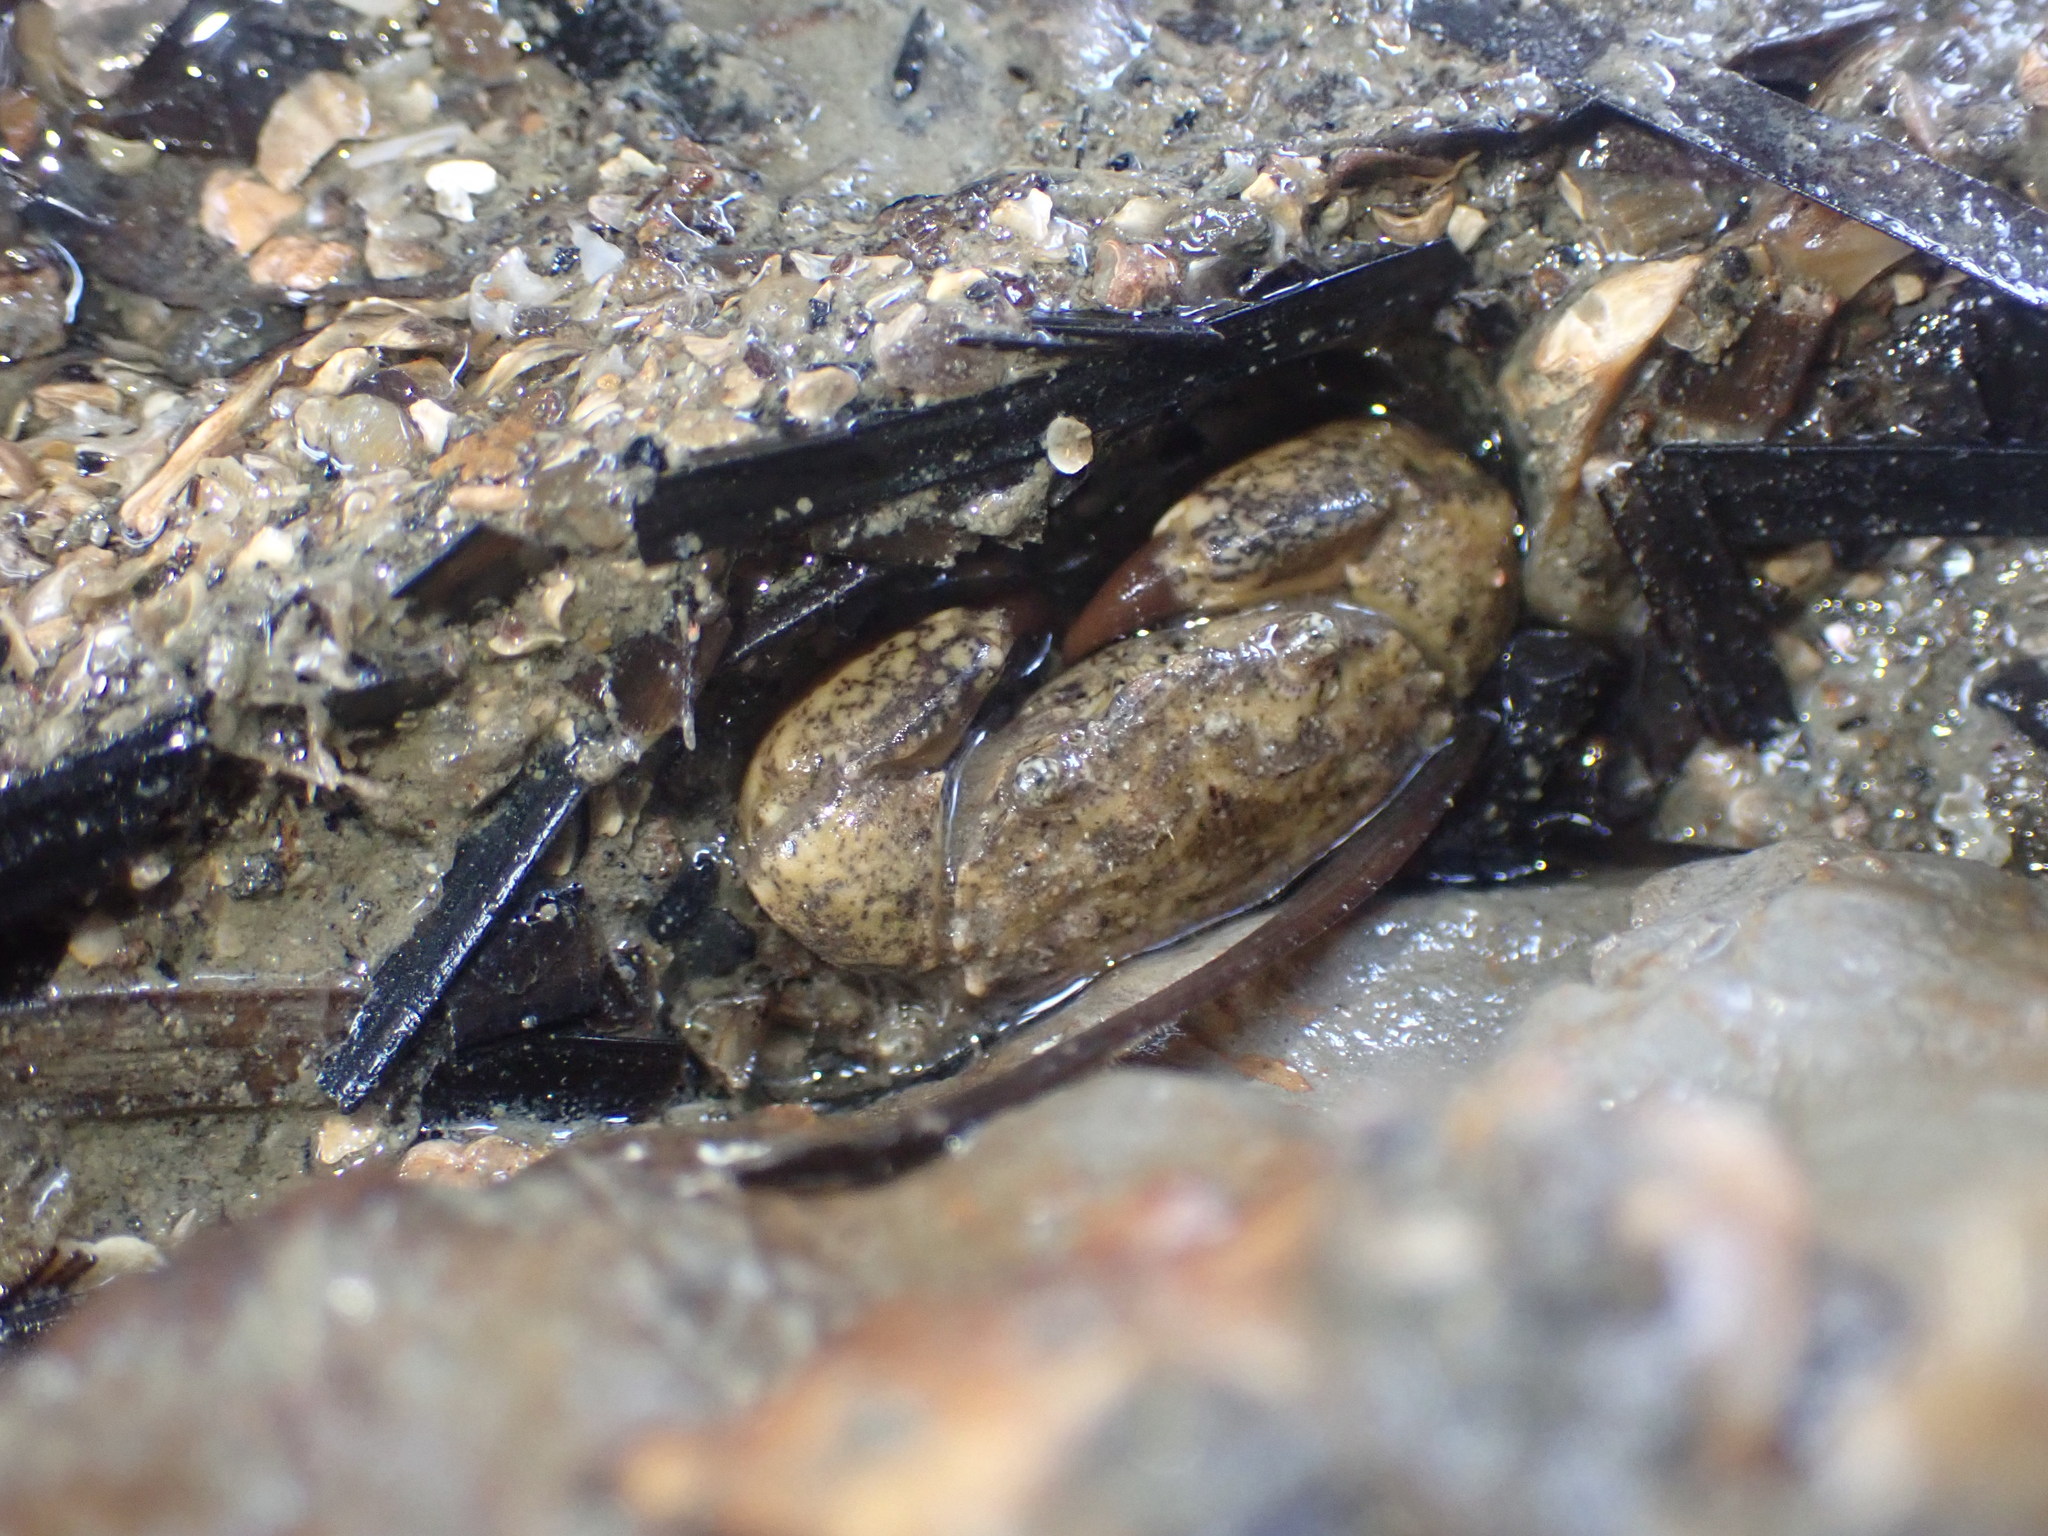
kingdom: Animalia
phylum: Arthropoda
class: Malacostraca
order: Decapoda
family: Pilumnidae
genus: Pilumnopeus
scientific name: Pilumnopeus serratifrons
